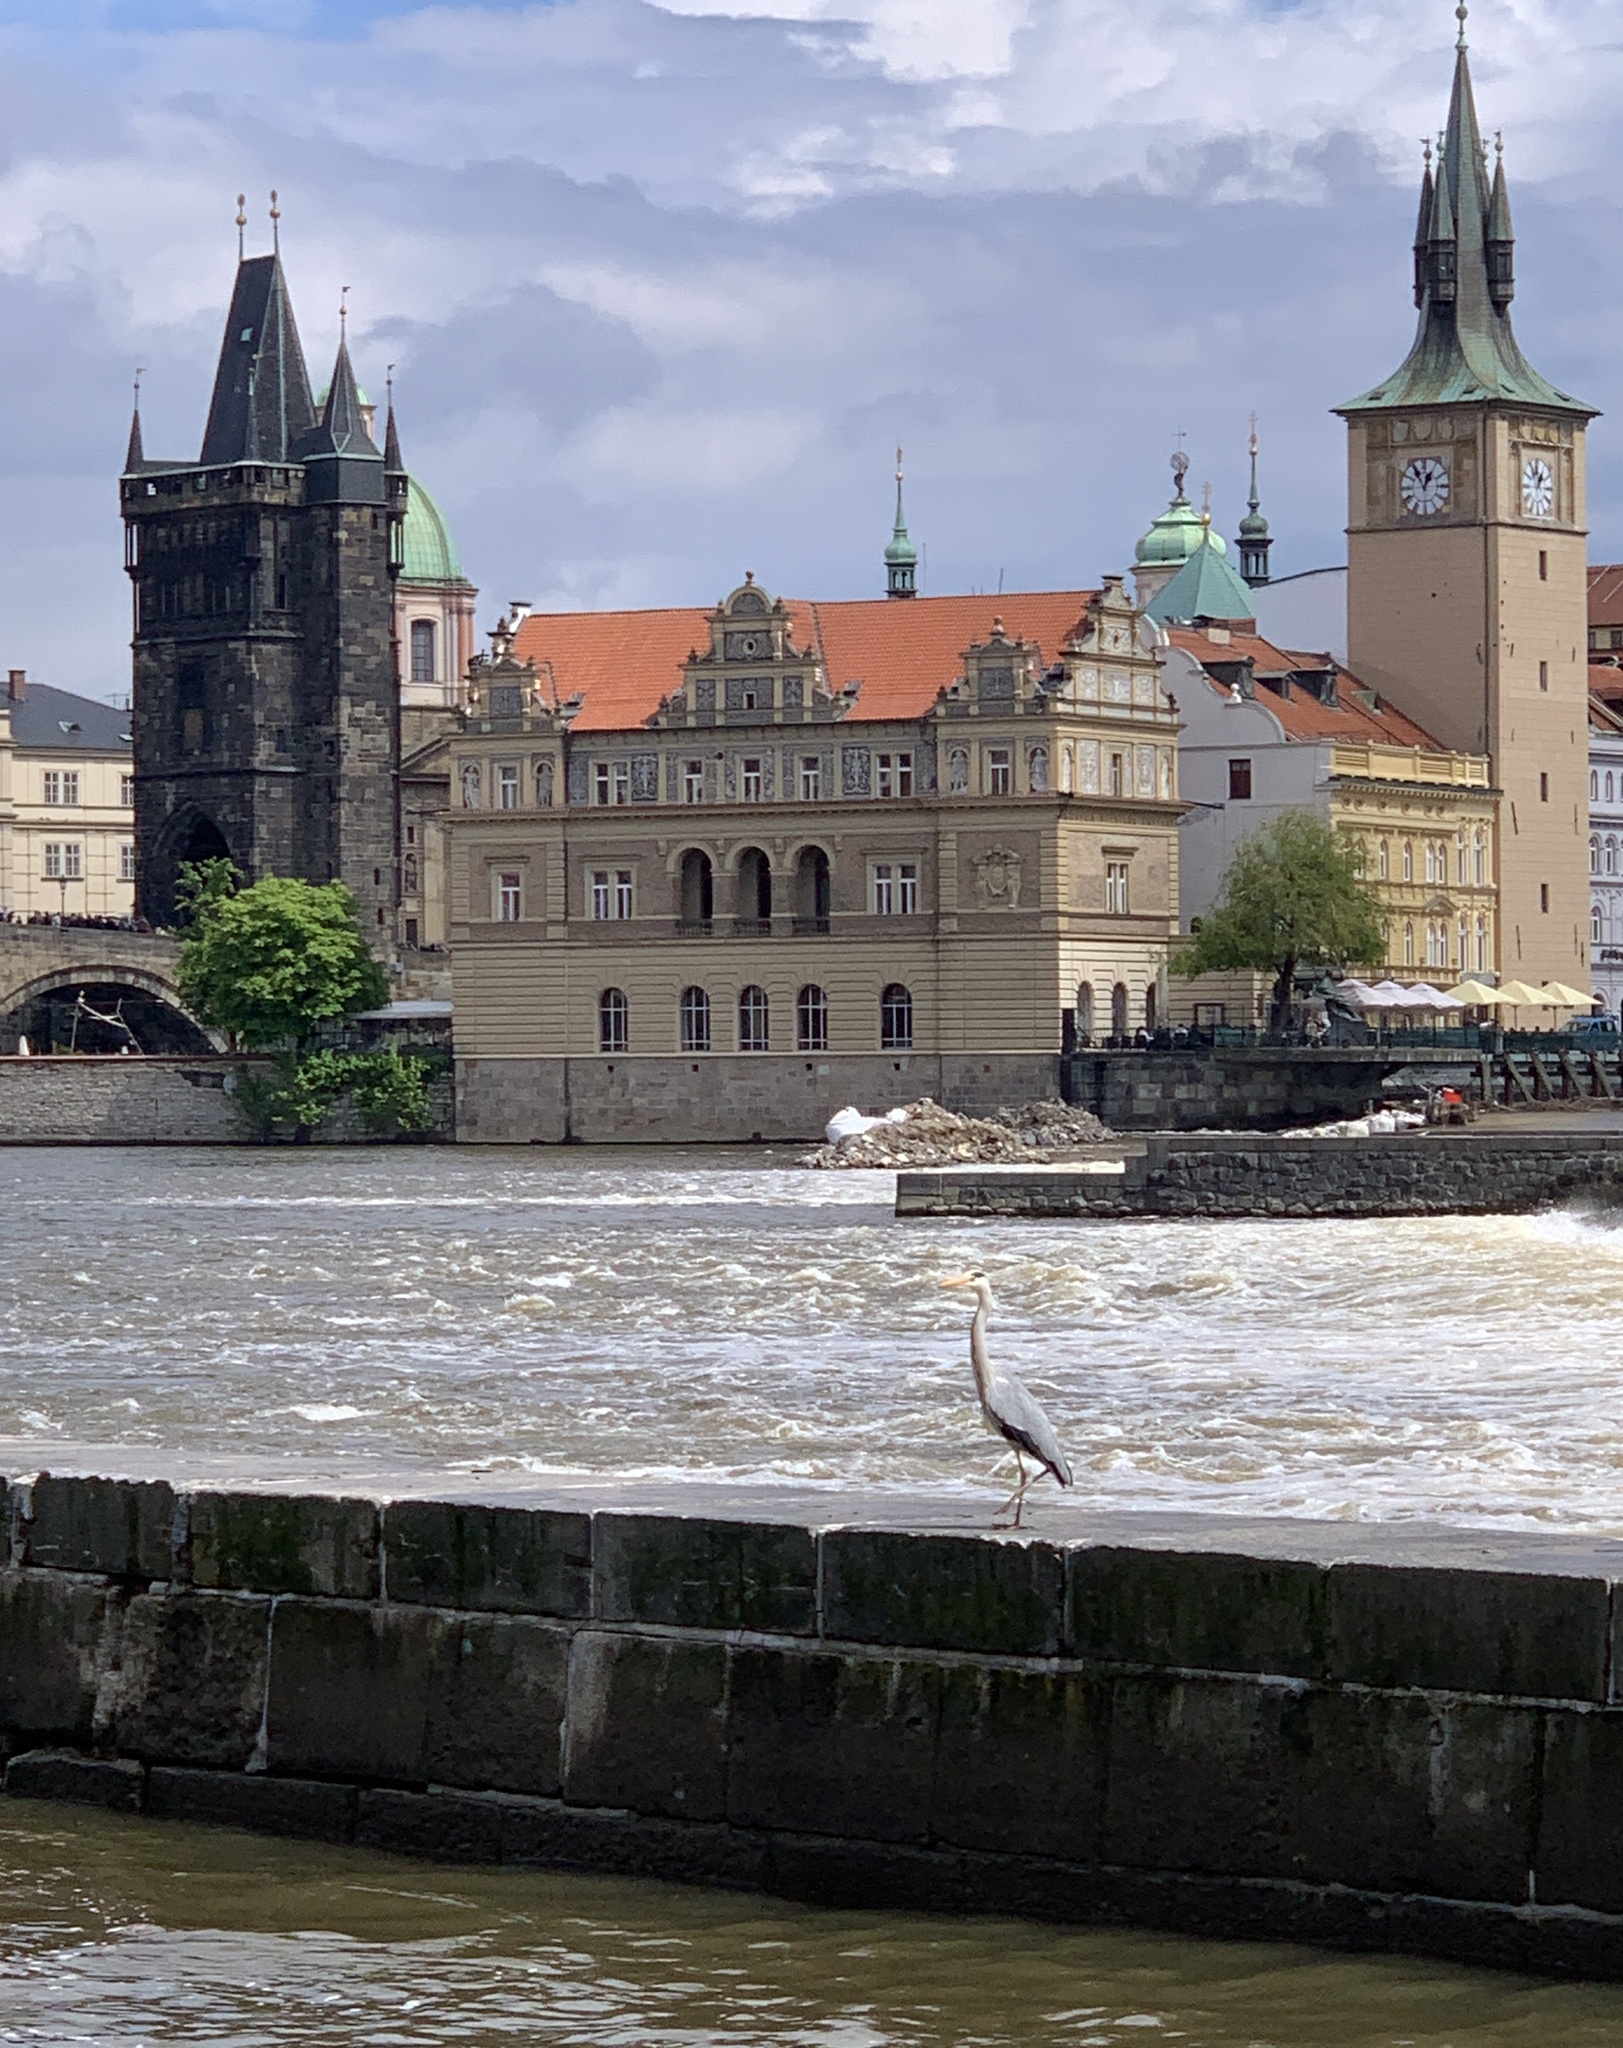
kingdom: Animalia
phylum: Chordata
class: Aves
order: Pelecaniformes
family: Ardeidae
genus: Ardea
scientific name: Ardea cinerea
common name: Grey heron
